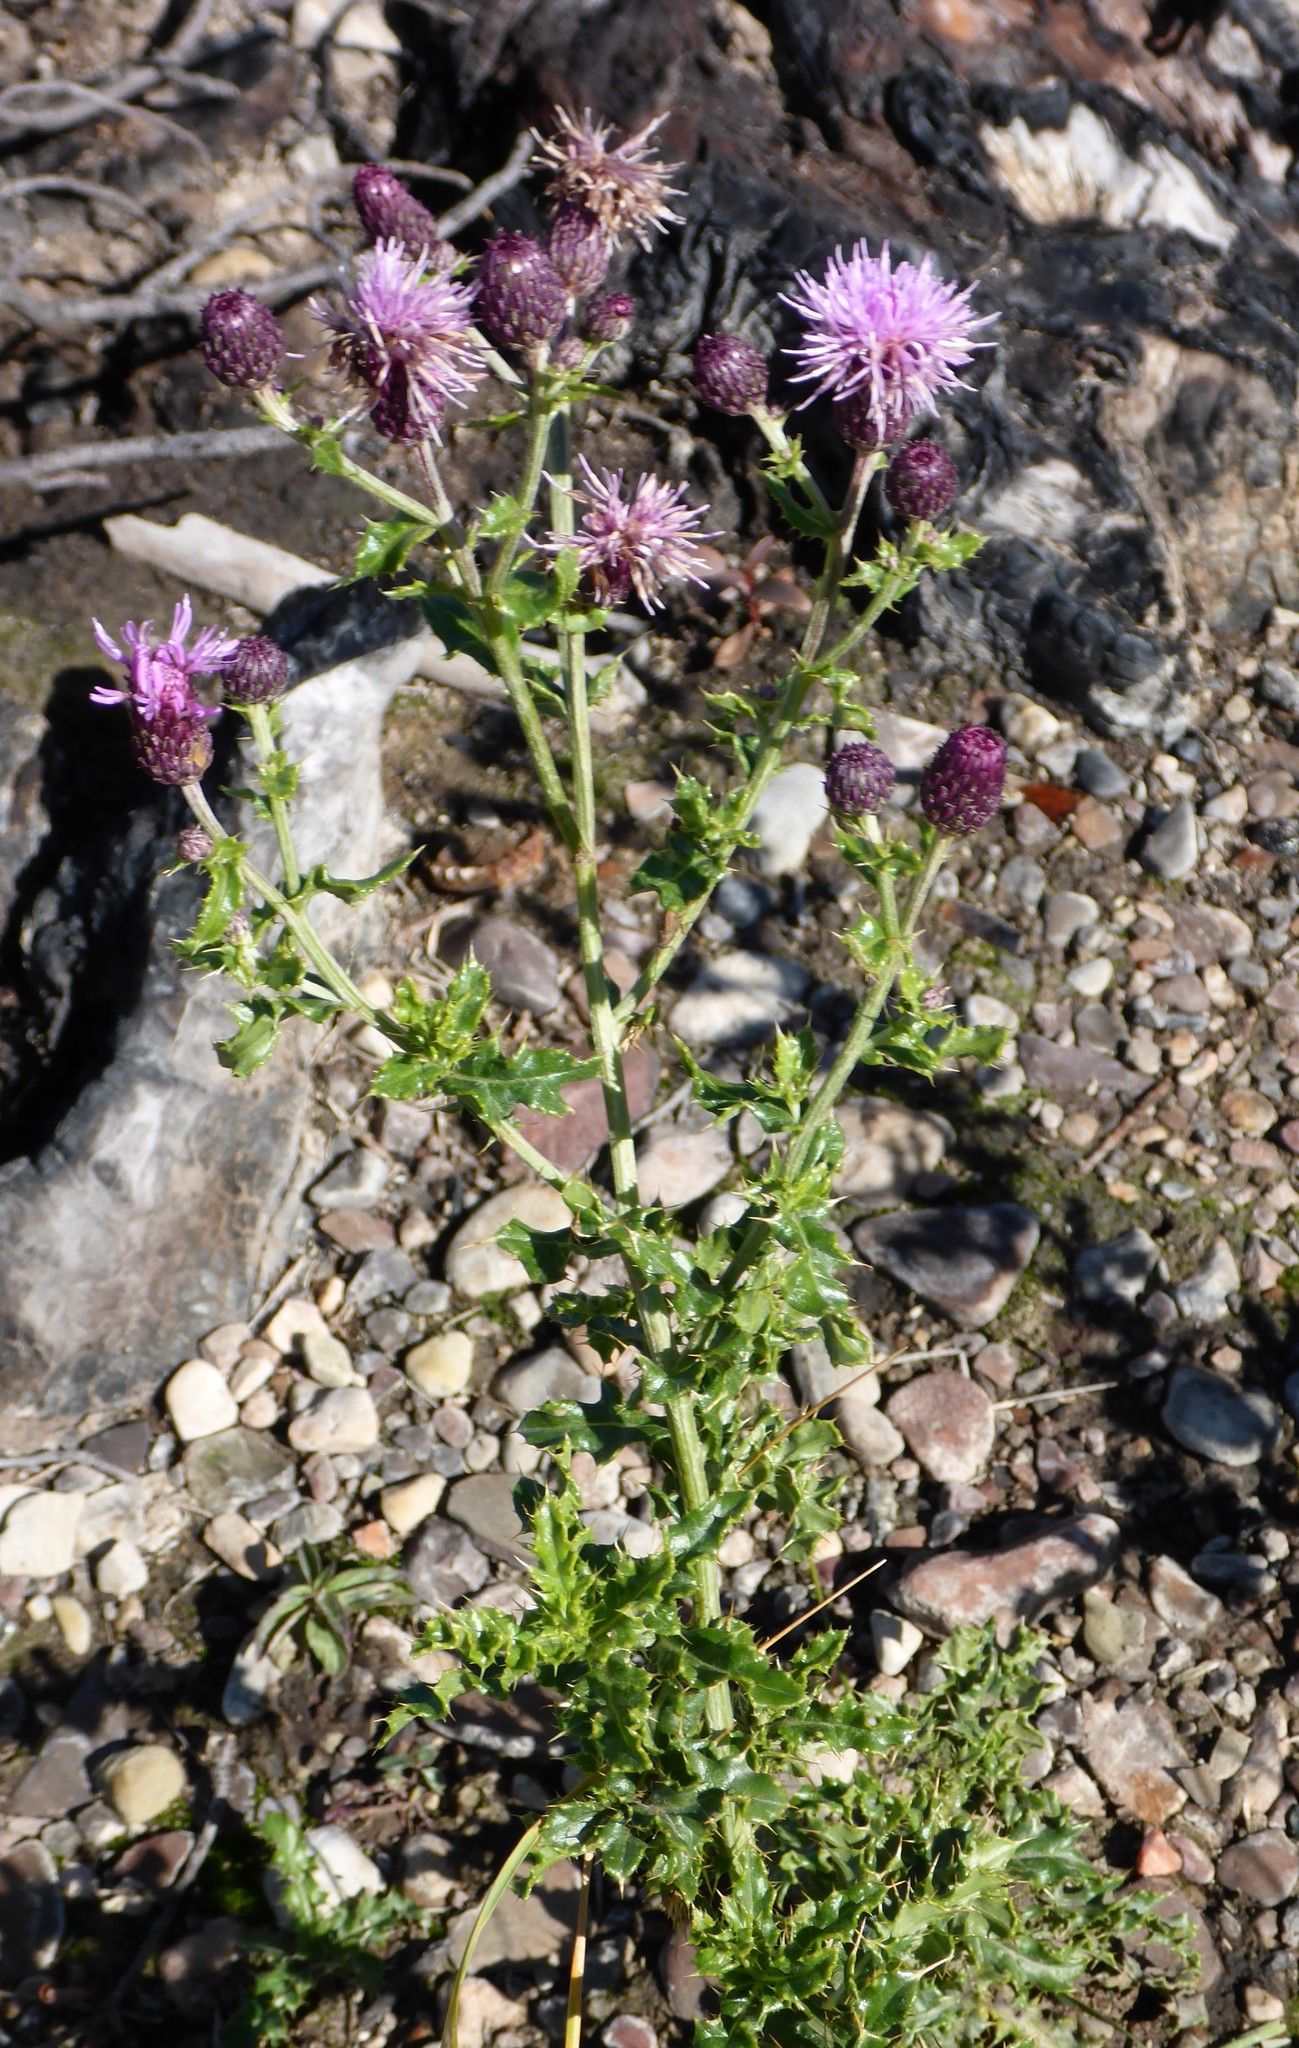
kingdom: Plantae
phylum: Tracheophyta
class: Magnoliopsida
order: Asterales
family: Asteraceae
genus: Cirsium
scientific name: Cirsium arvense
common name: Creeping thistle
